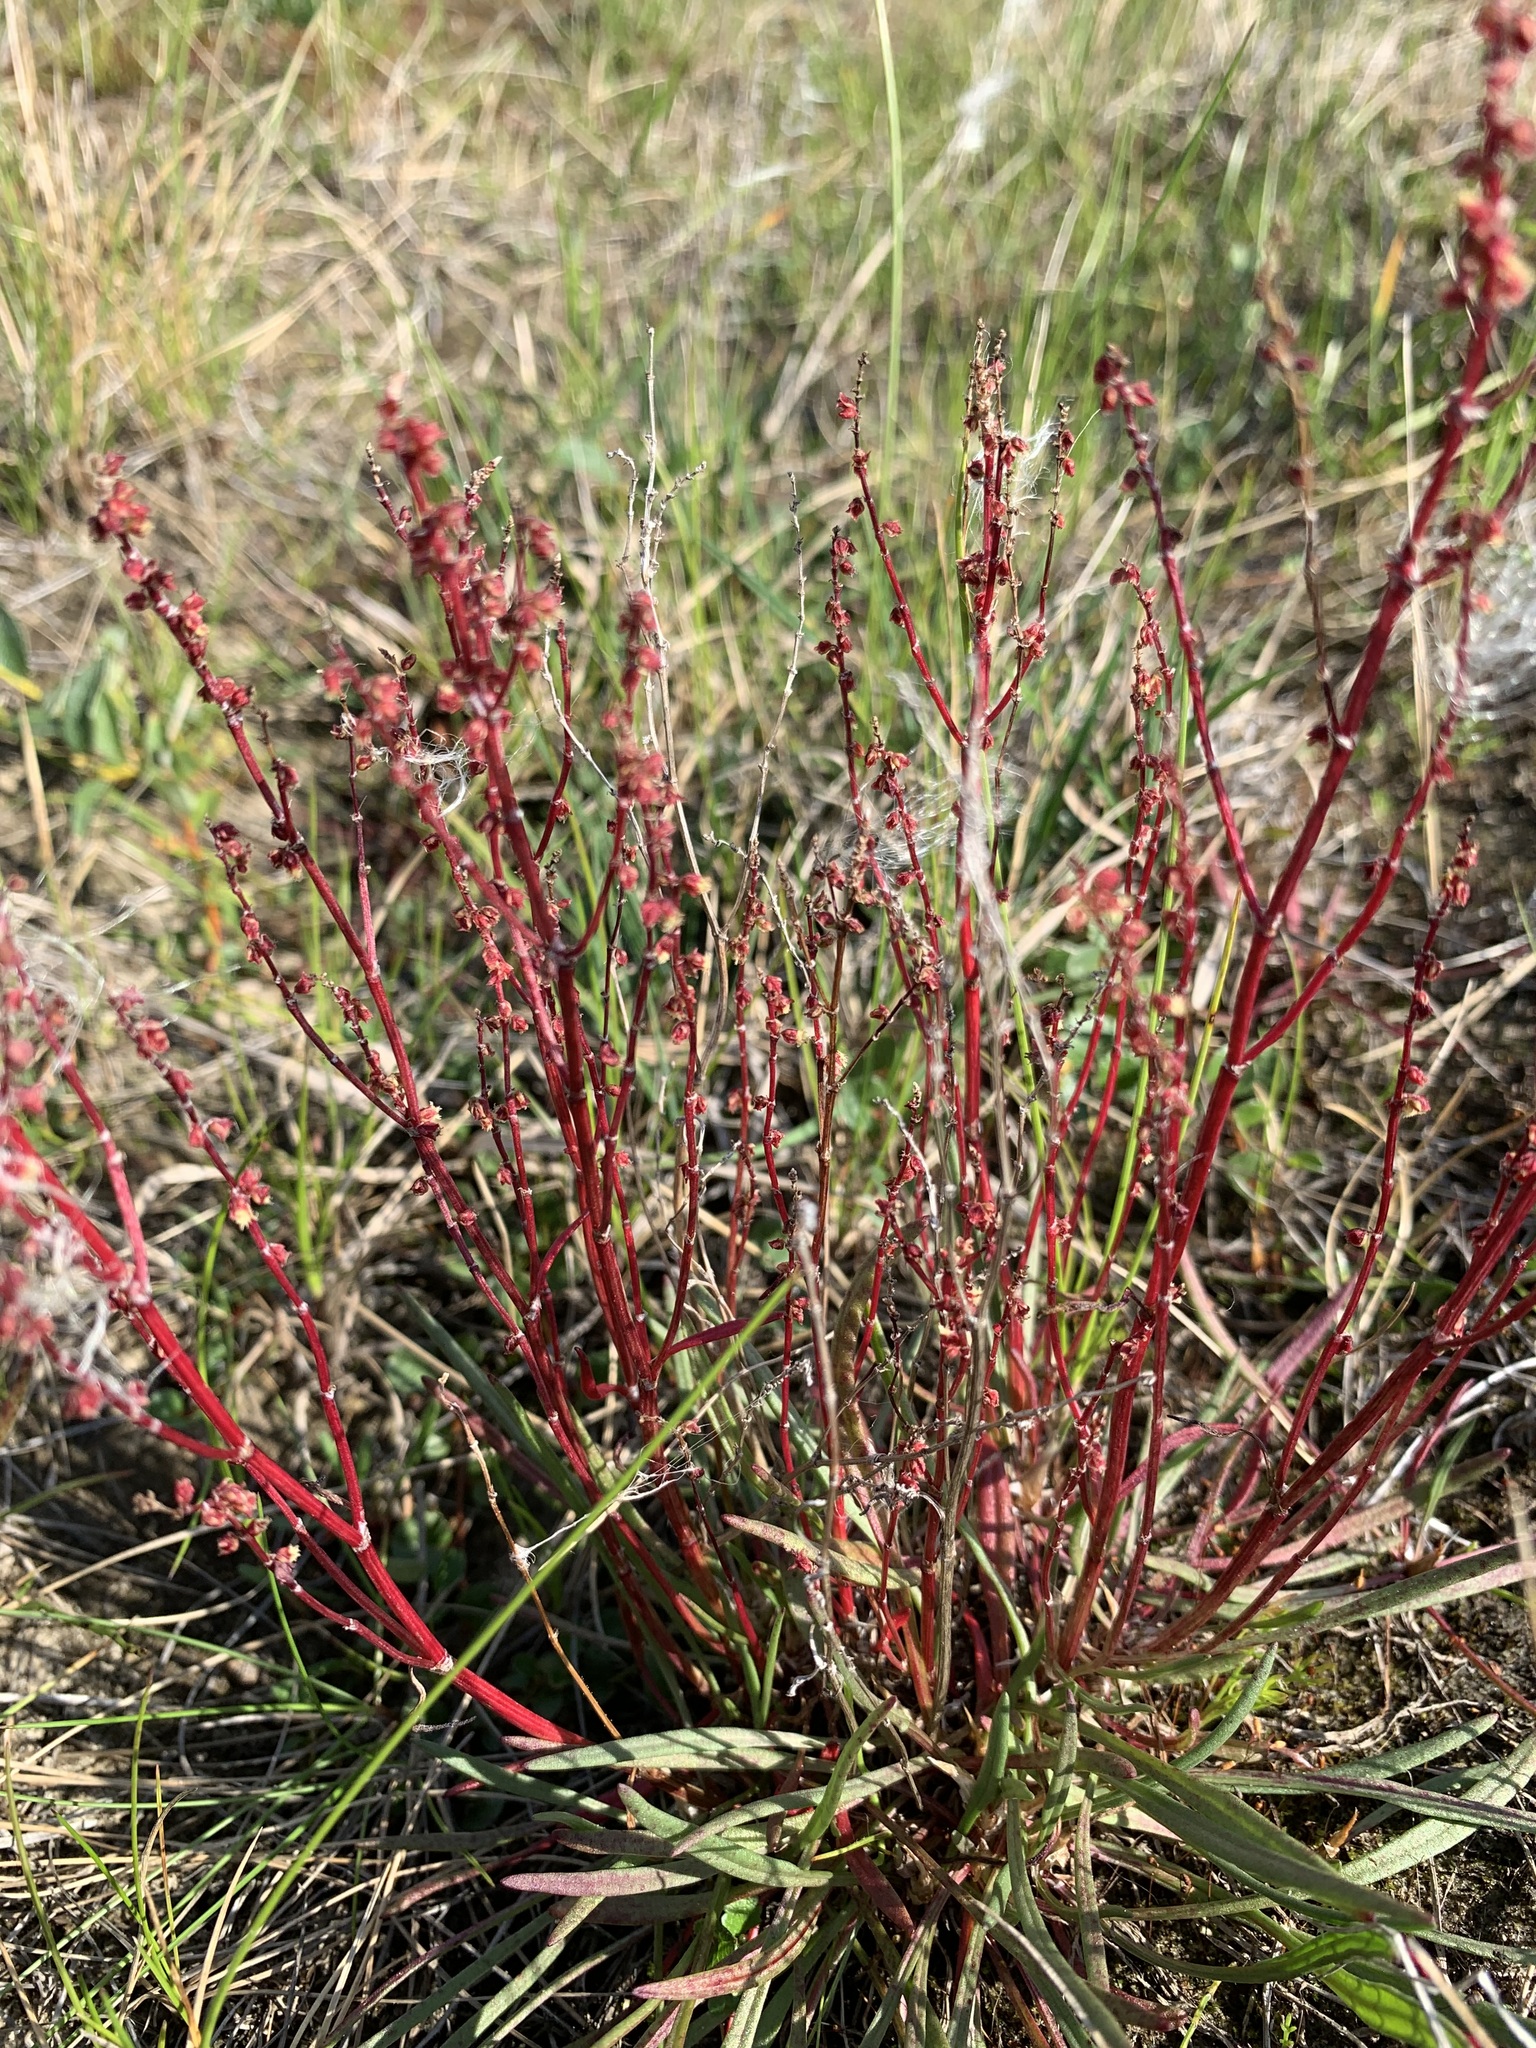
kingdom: Plantae
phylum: Tracheophyta
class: Magnoliopsida
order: Caryophyllales
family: Polygonaceae
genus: Rumex
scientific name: Rumex graminifolius
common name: Grass-leaved sorrel
